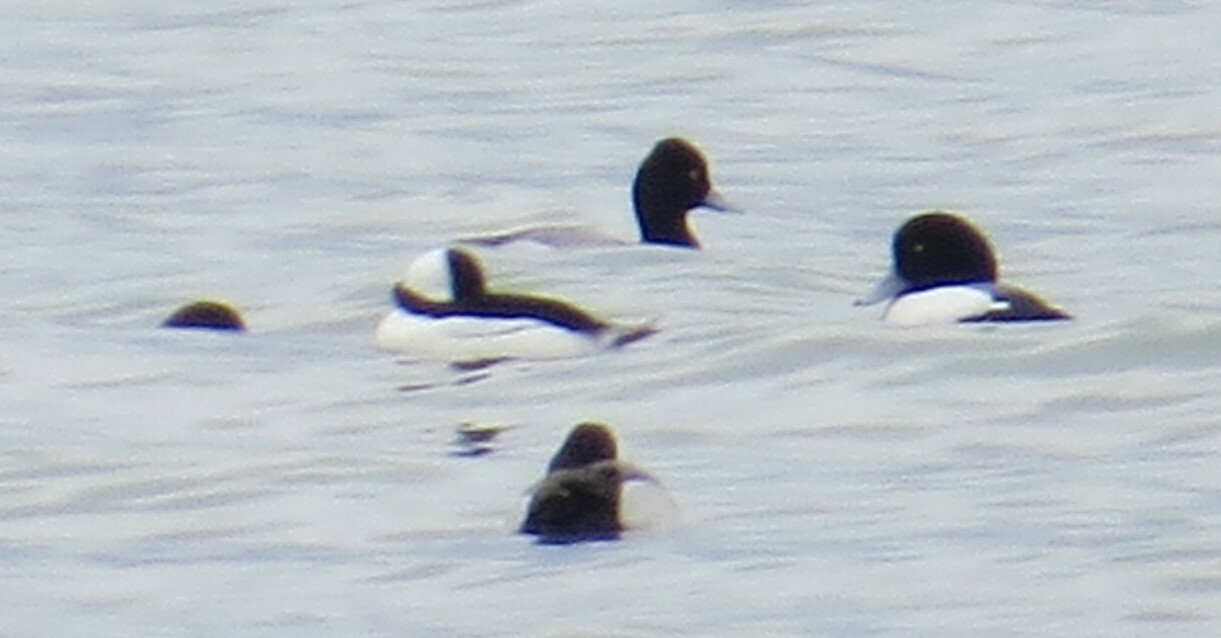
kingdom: Animalia
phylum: Chordata
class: Aves
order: Anseriformes
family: Anatidae
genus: Bucephala
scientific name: Bucephala albeola
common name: Bufflehead
